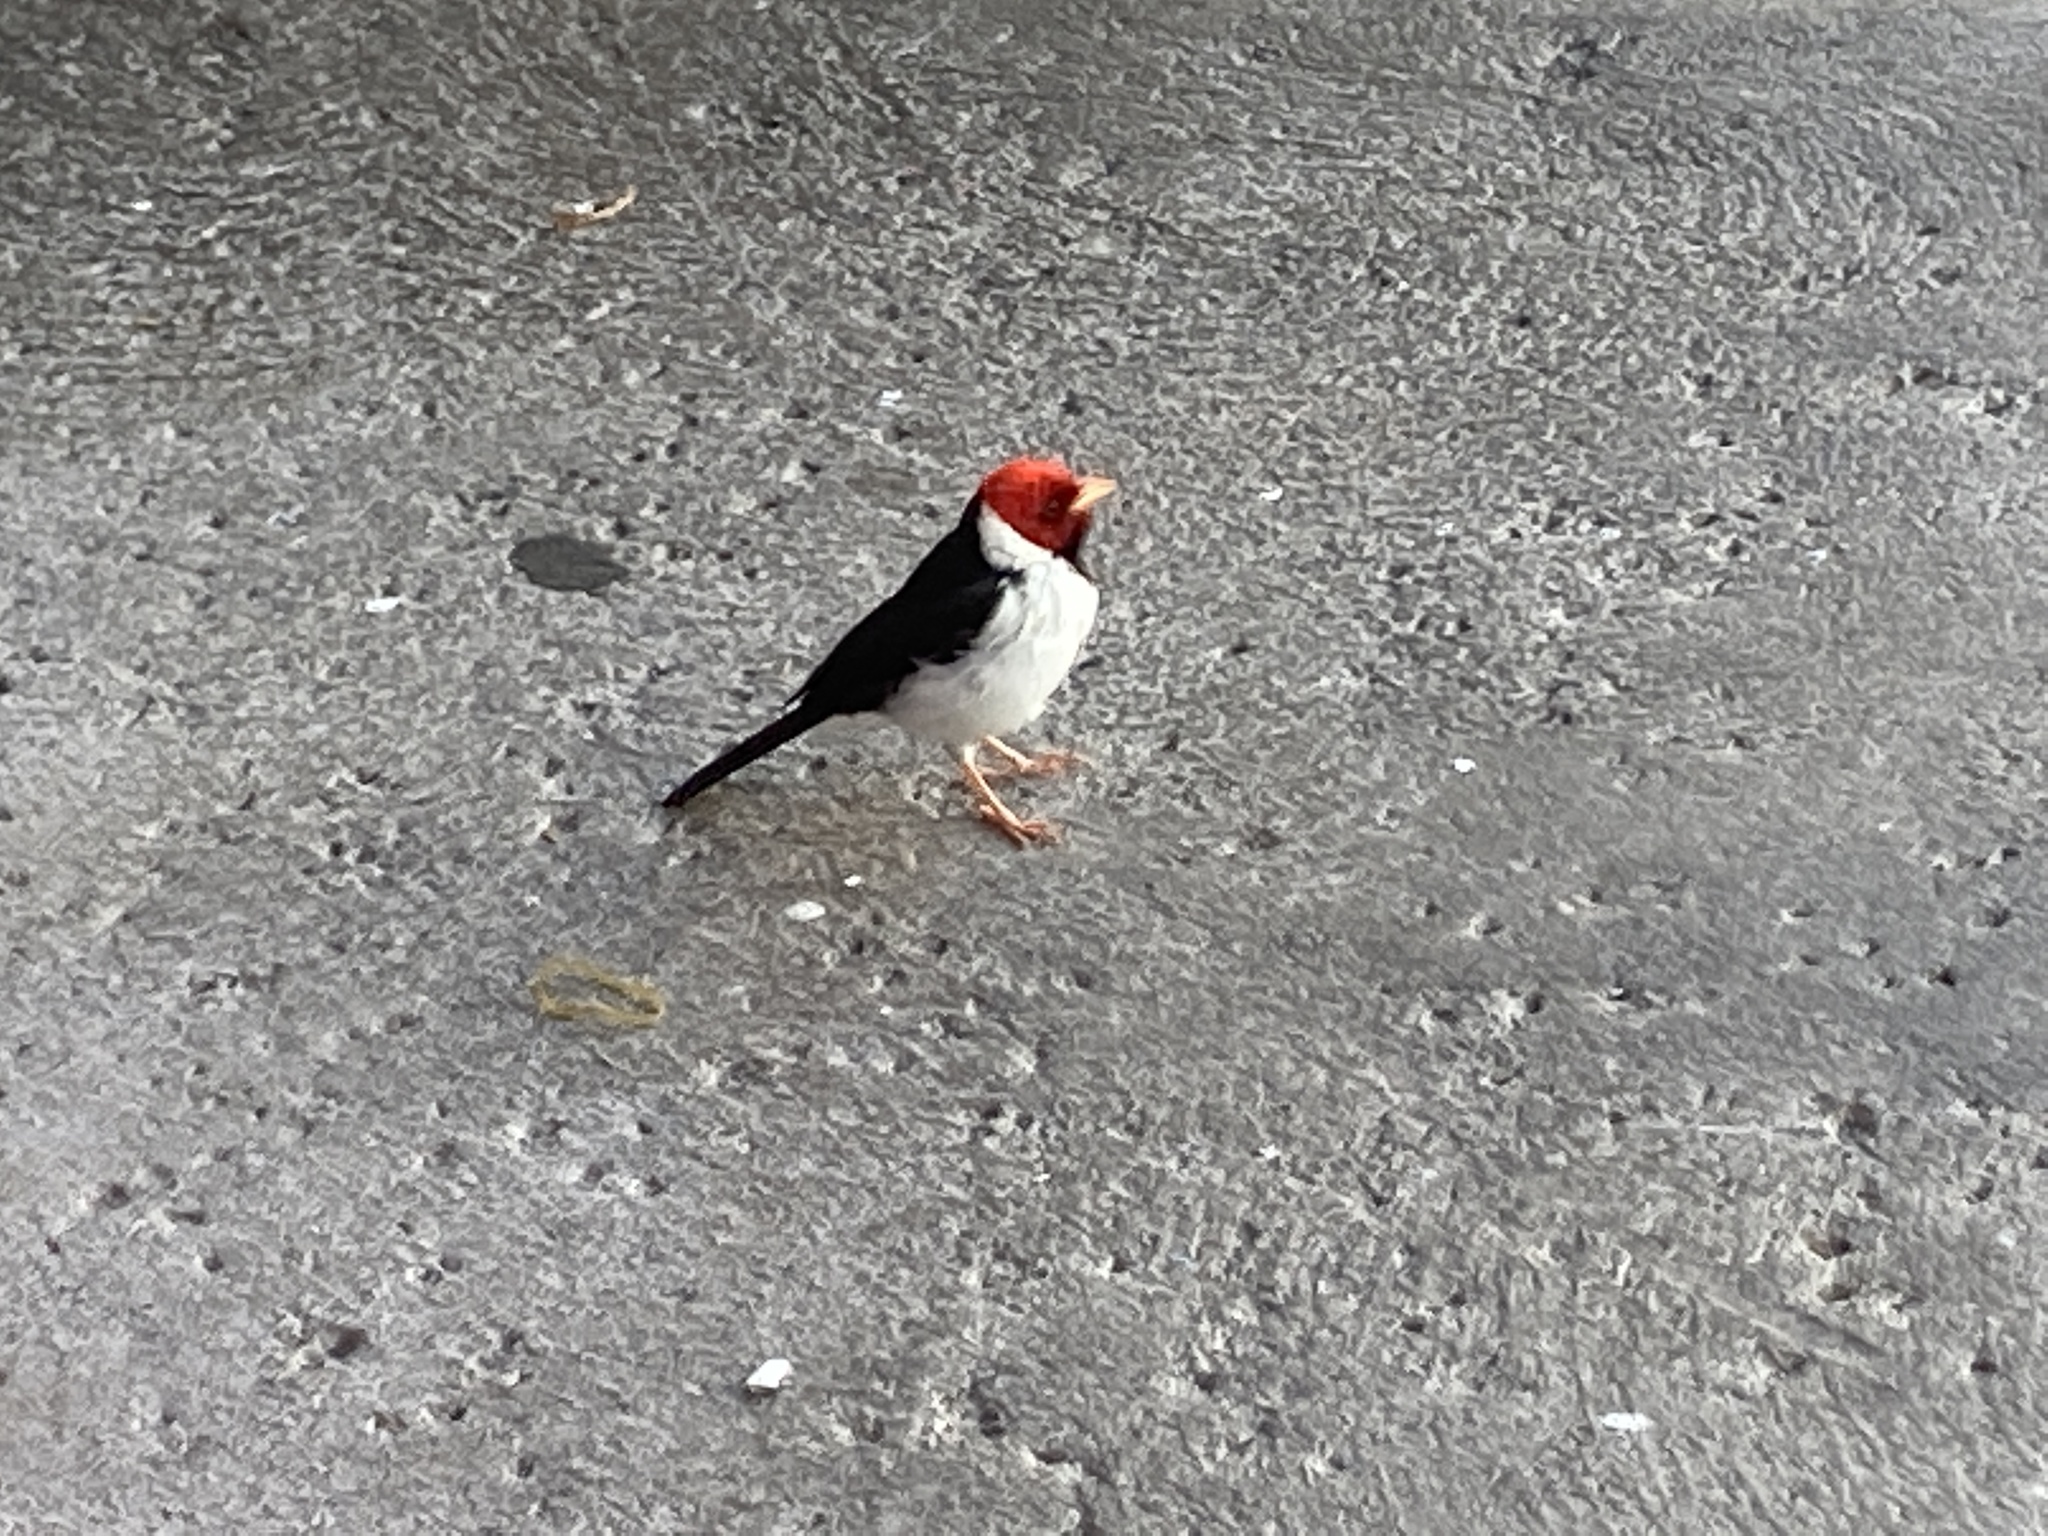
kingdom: Animalia
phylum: Chordata
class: Aves
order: Passeriformes
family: Thraupidae
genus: Paroaria
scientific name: Paroaria capitata
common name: Yellow-billed cardinal
